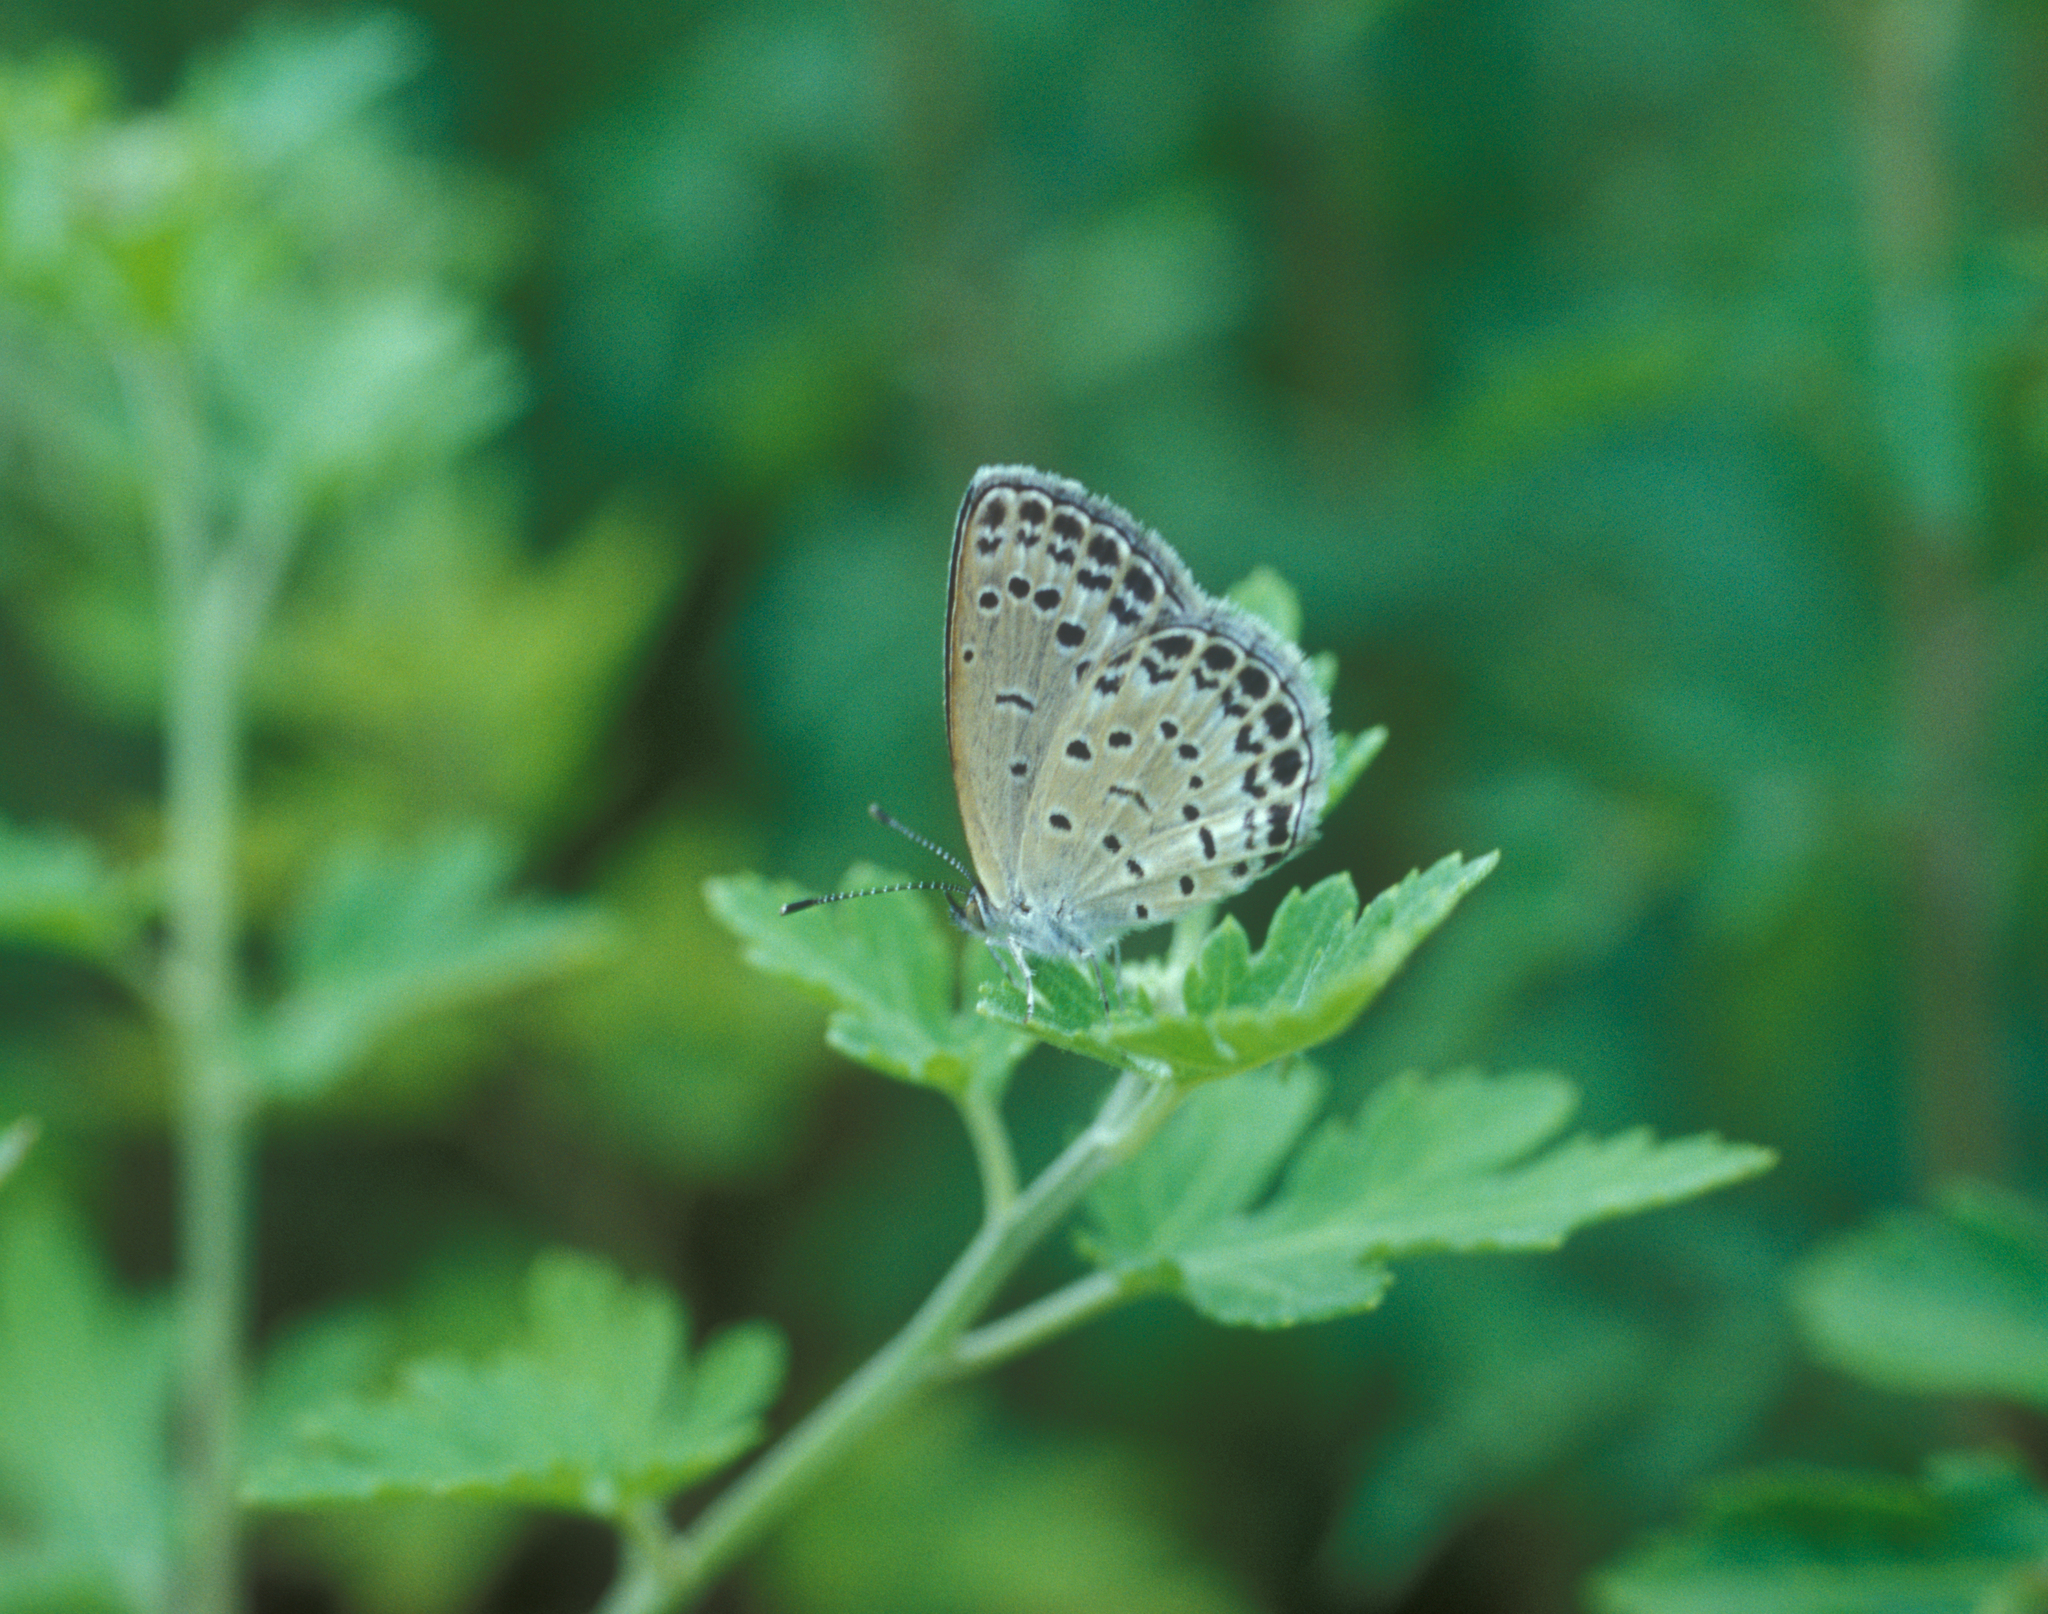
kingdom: Animalia
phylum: Arthropoda
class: Insecta
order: Lepidoptera
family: Lycaenidae
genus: Pseudozizeeria
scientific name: Pseudozizeeria maha
